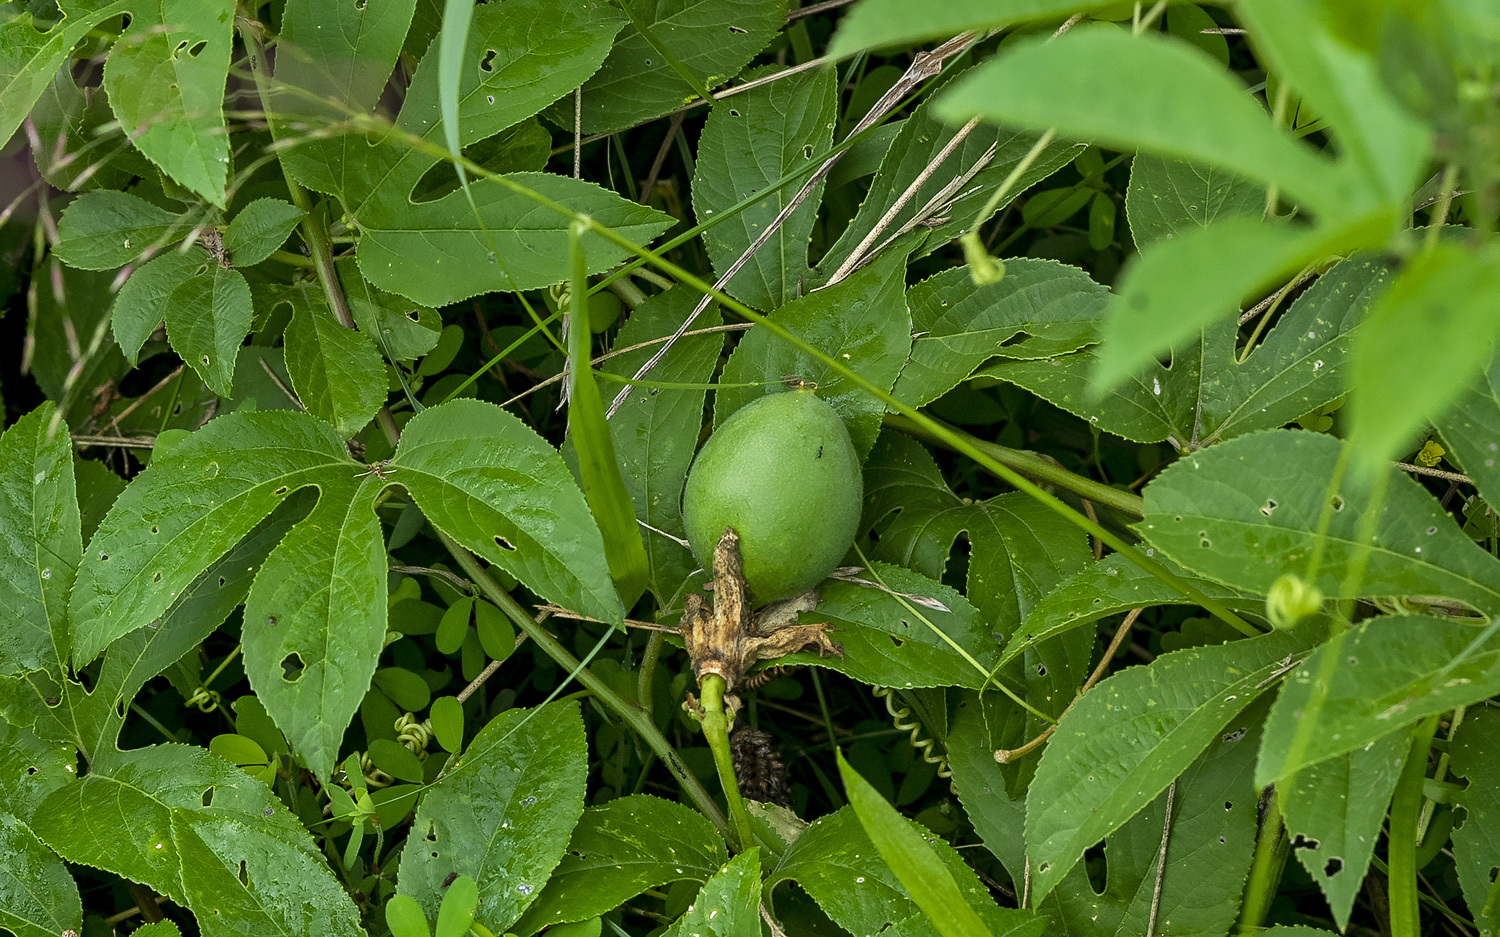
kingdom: Plantae
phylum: Tracheophyta
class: Magnoliopsida
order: Malpighiales
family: Passifloraceae
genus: Passiflora
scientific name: Passiflora incarnata
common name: Apricot-vine
